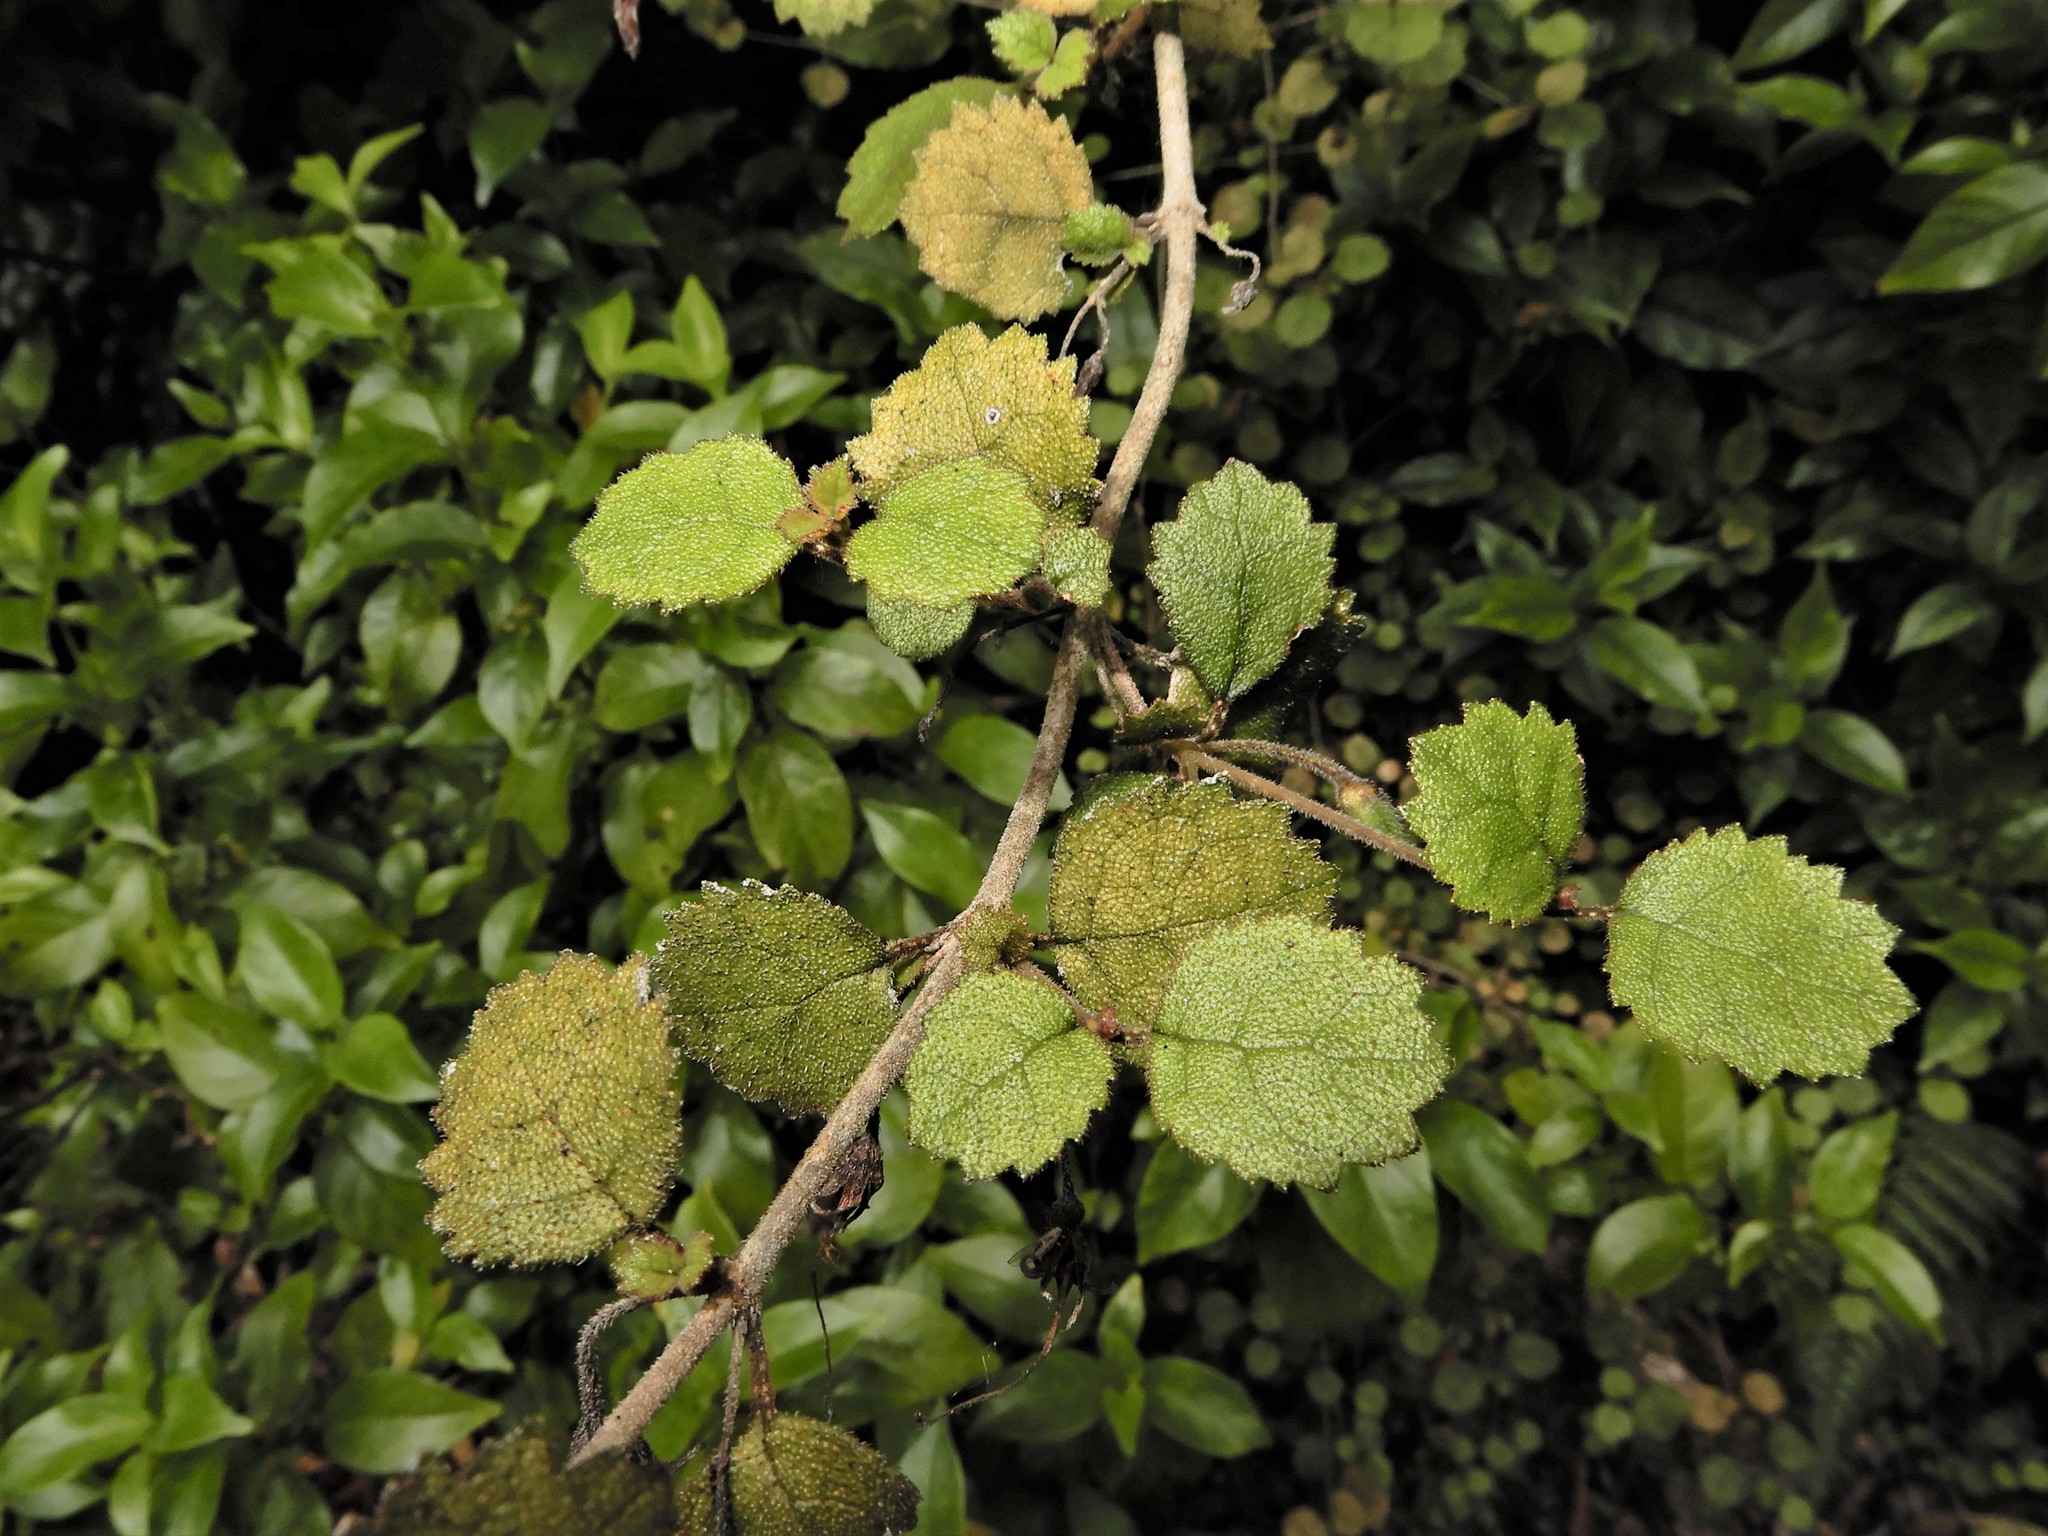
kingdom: Plantae
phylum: Tracheophyta
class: Magnoliopsida
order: Lamiales
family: Gesneriaceae
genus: Rhabdothamnus
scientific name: Rhabdothamnus solandri
